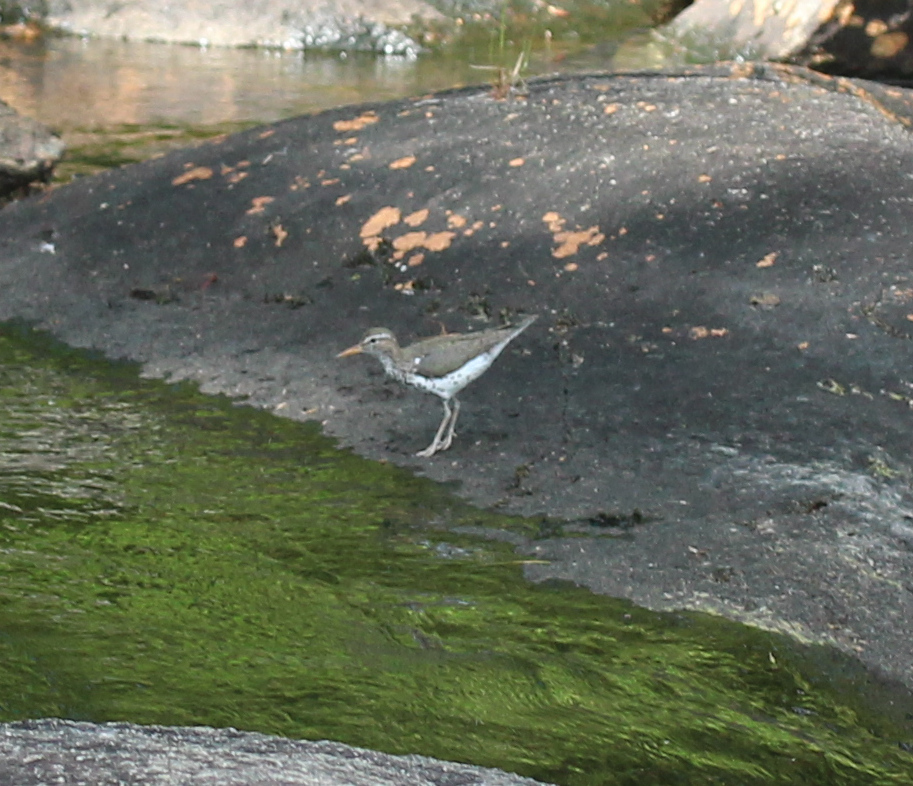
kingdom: Animalia
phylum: Chordata
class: Aves
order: Charadriiformes
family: Scolopacidae
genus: Actitis
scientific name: Actitis macularius
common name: Spotted sandpiper
